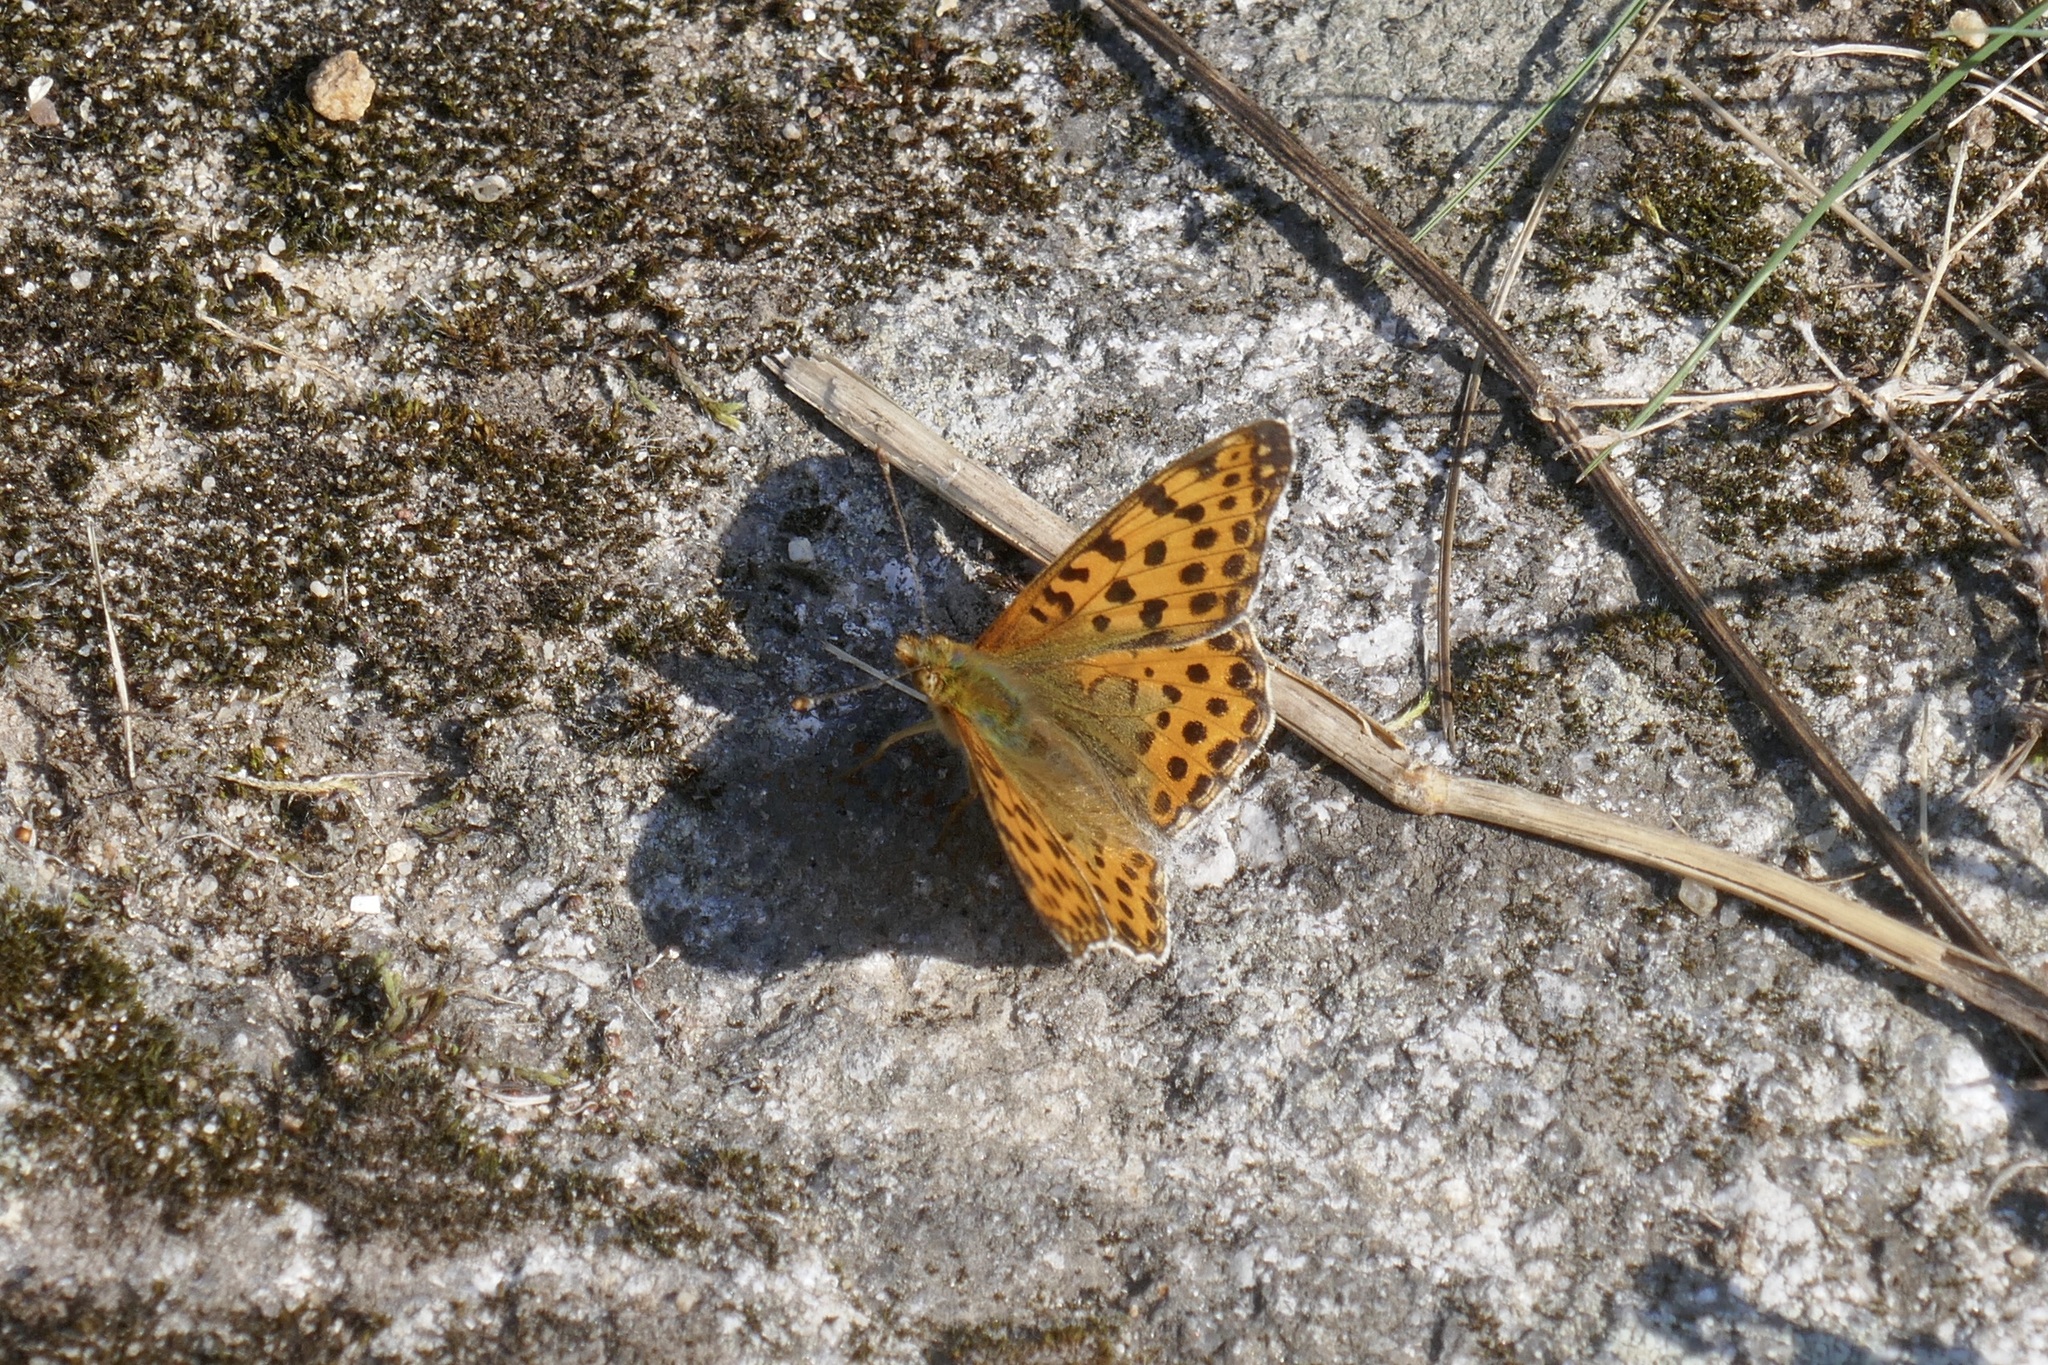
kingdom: Animalia
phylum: Arthropoda
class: Insecta
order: Lepidoptera
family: Nymphalidae
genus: Issoria
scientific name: Issoria lathonia
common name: Queen of spain fritillary
